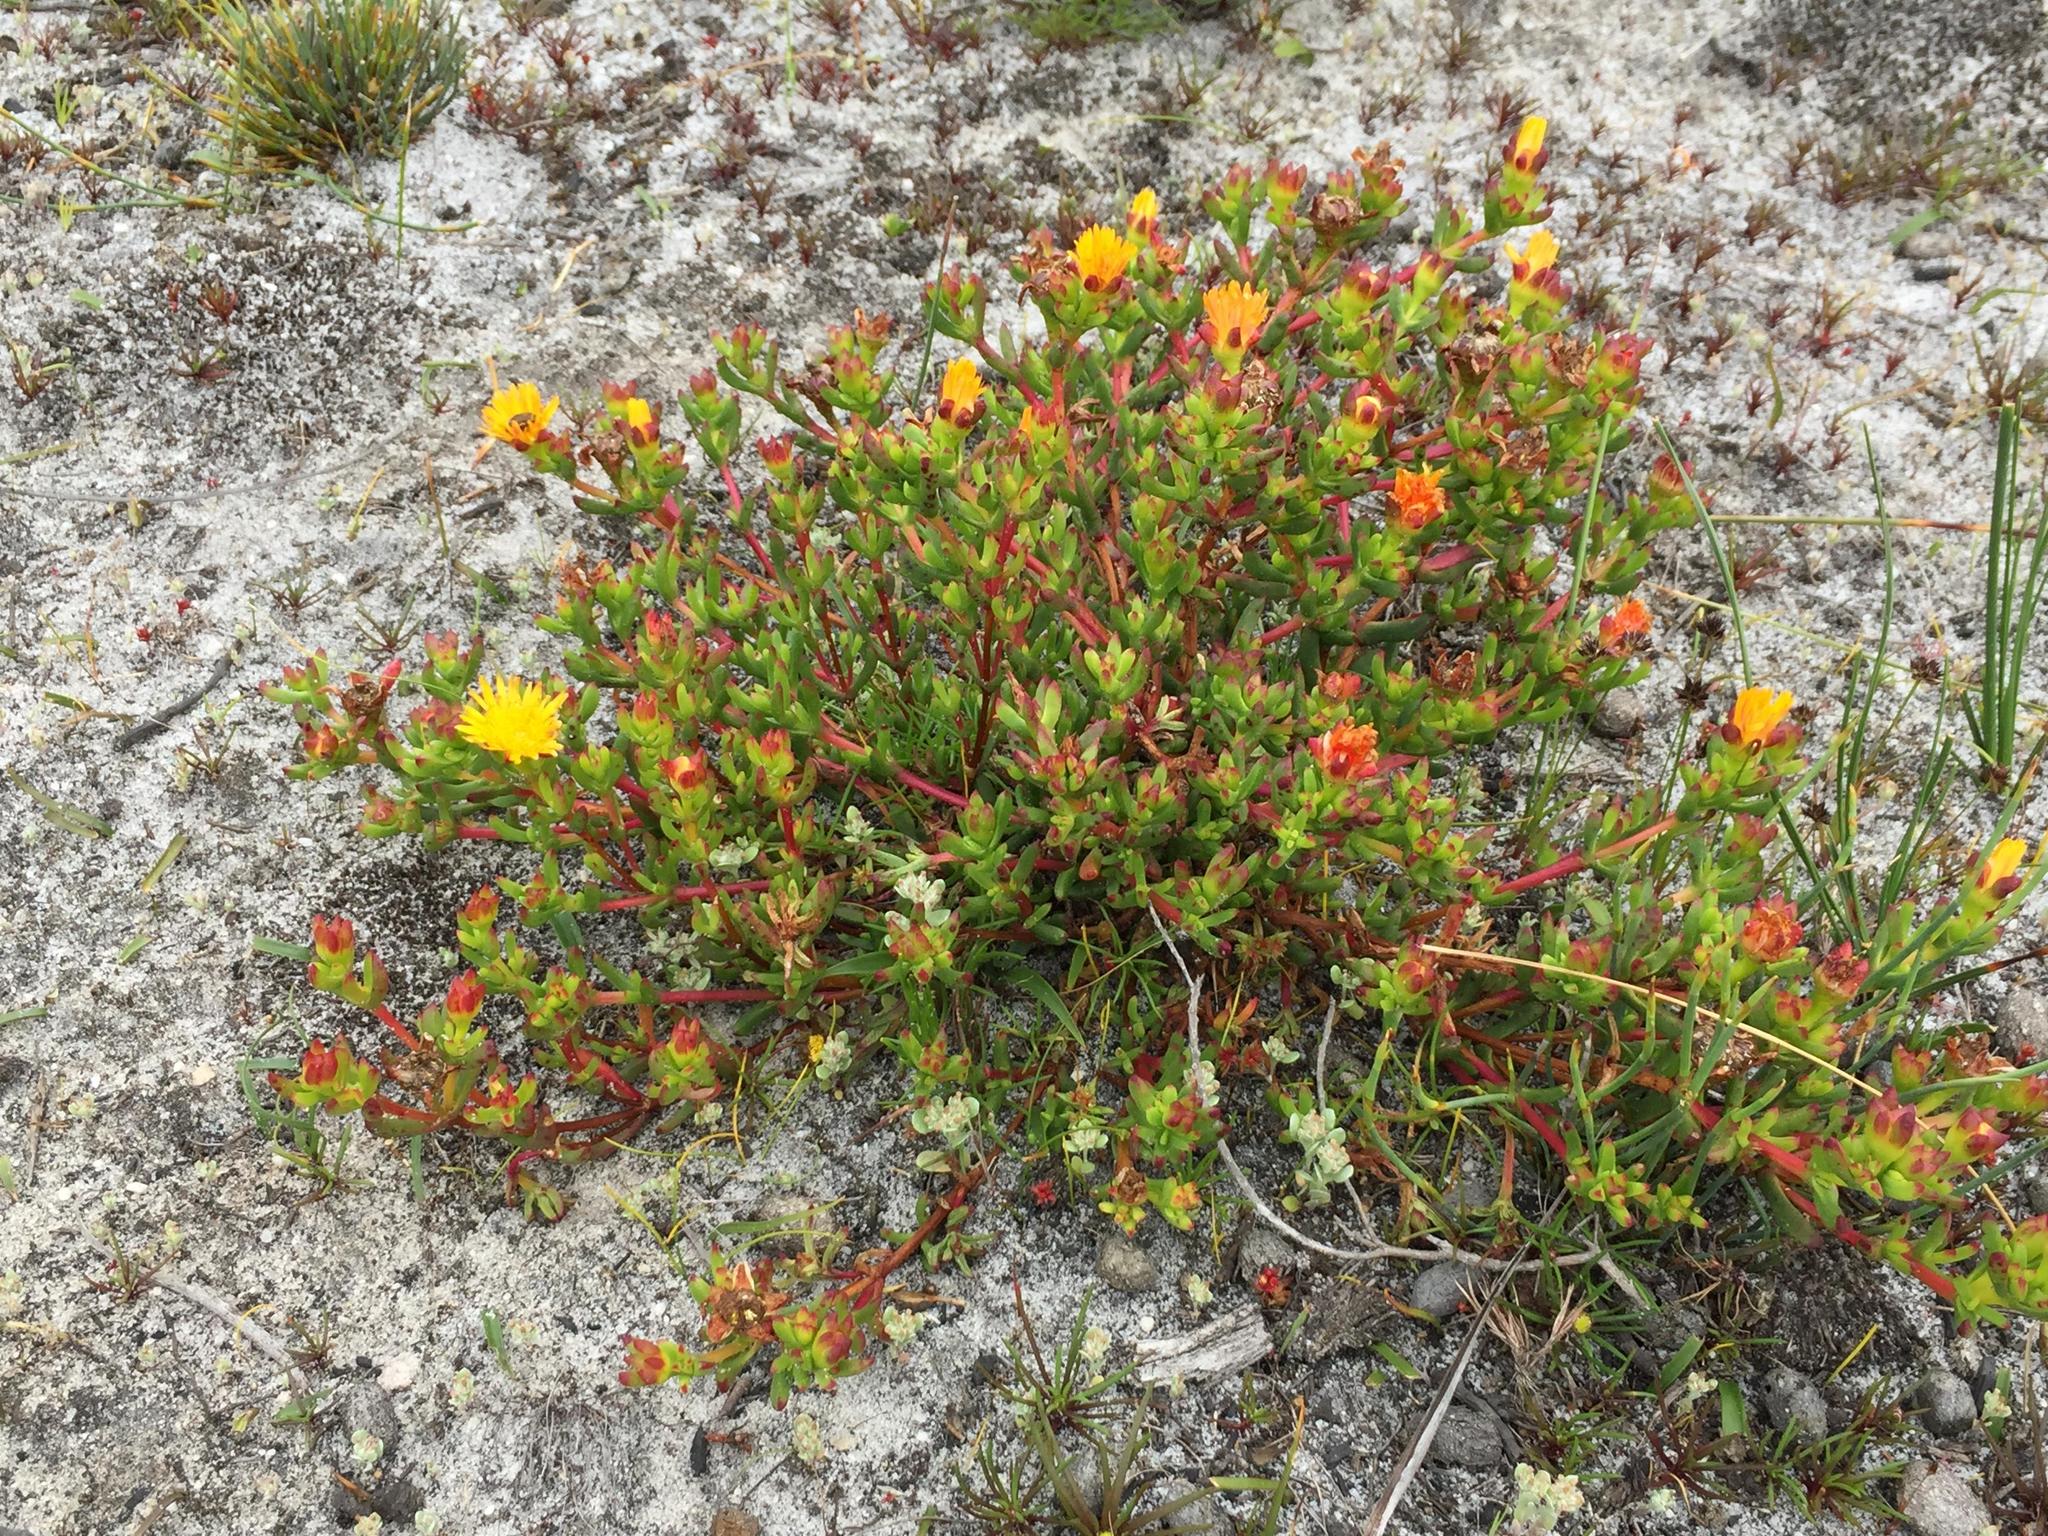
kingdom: Plantae
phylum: Tracheophyta
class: Magnoliopsida
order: Caryophyllales
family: Aizoaceae
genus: Lampranthus
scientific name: Lampranthus promontorii
